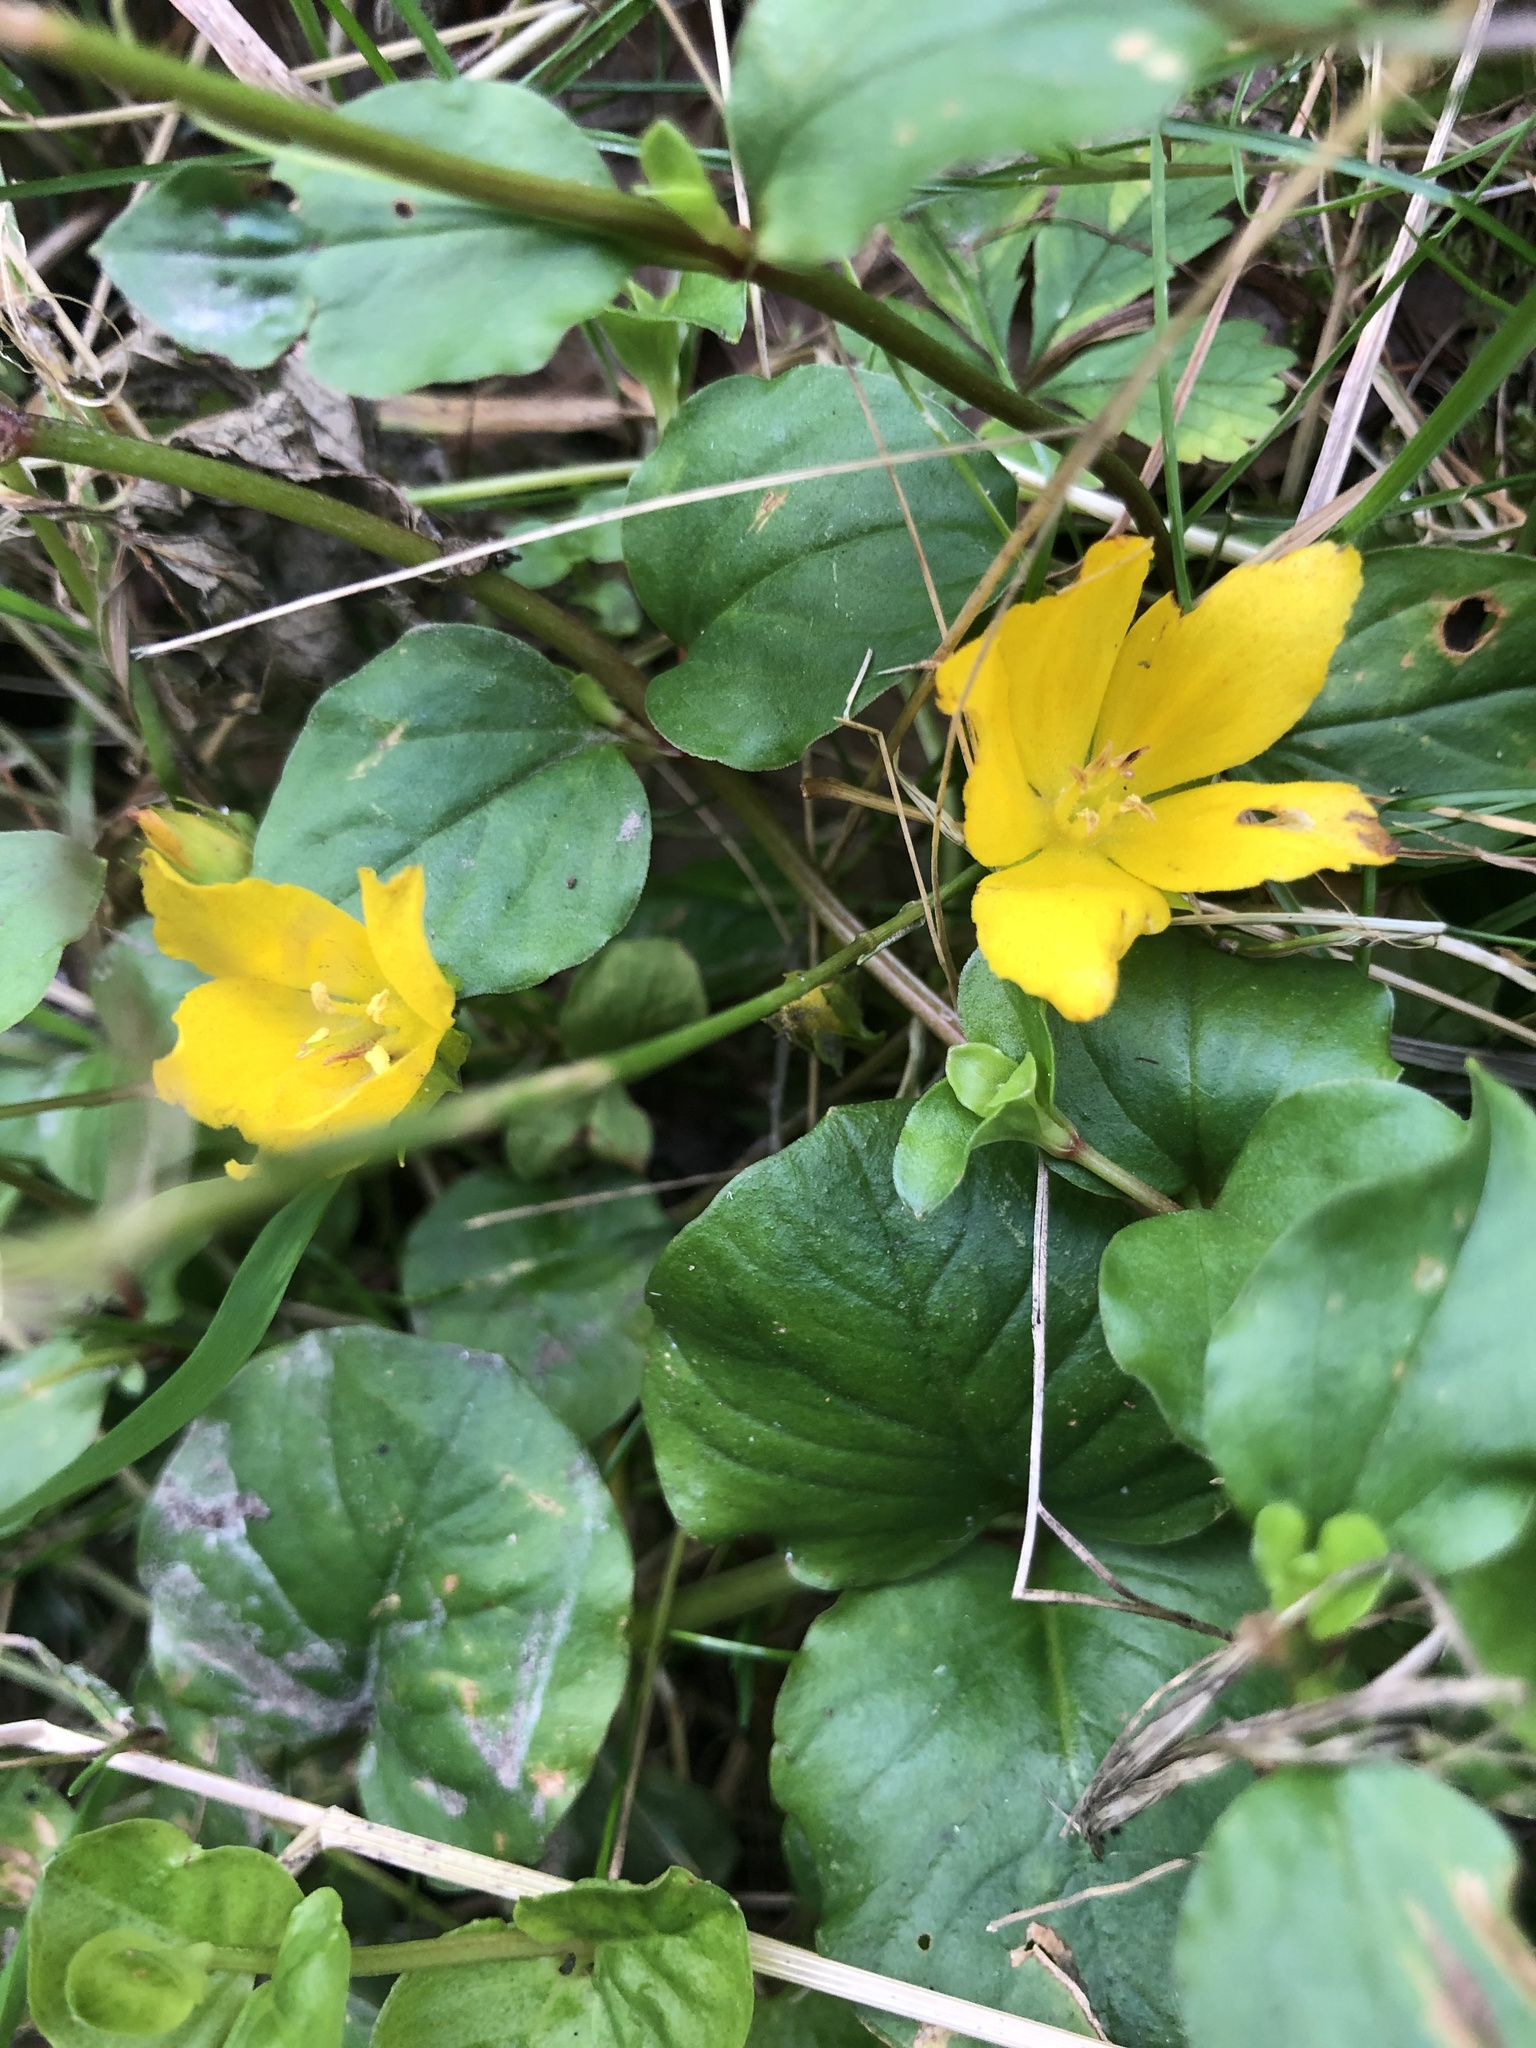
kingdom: Plantae
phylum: Tracheophyta
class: Magnoliopsida
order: Ericales
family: Primulaceae
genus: Lysimachia
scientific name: Lysimachia nummularia
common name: Moneywort
